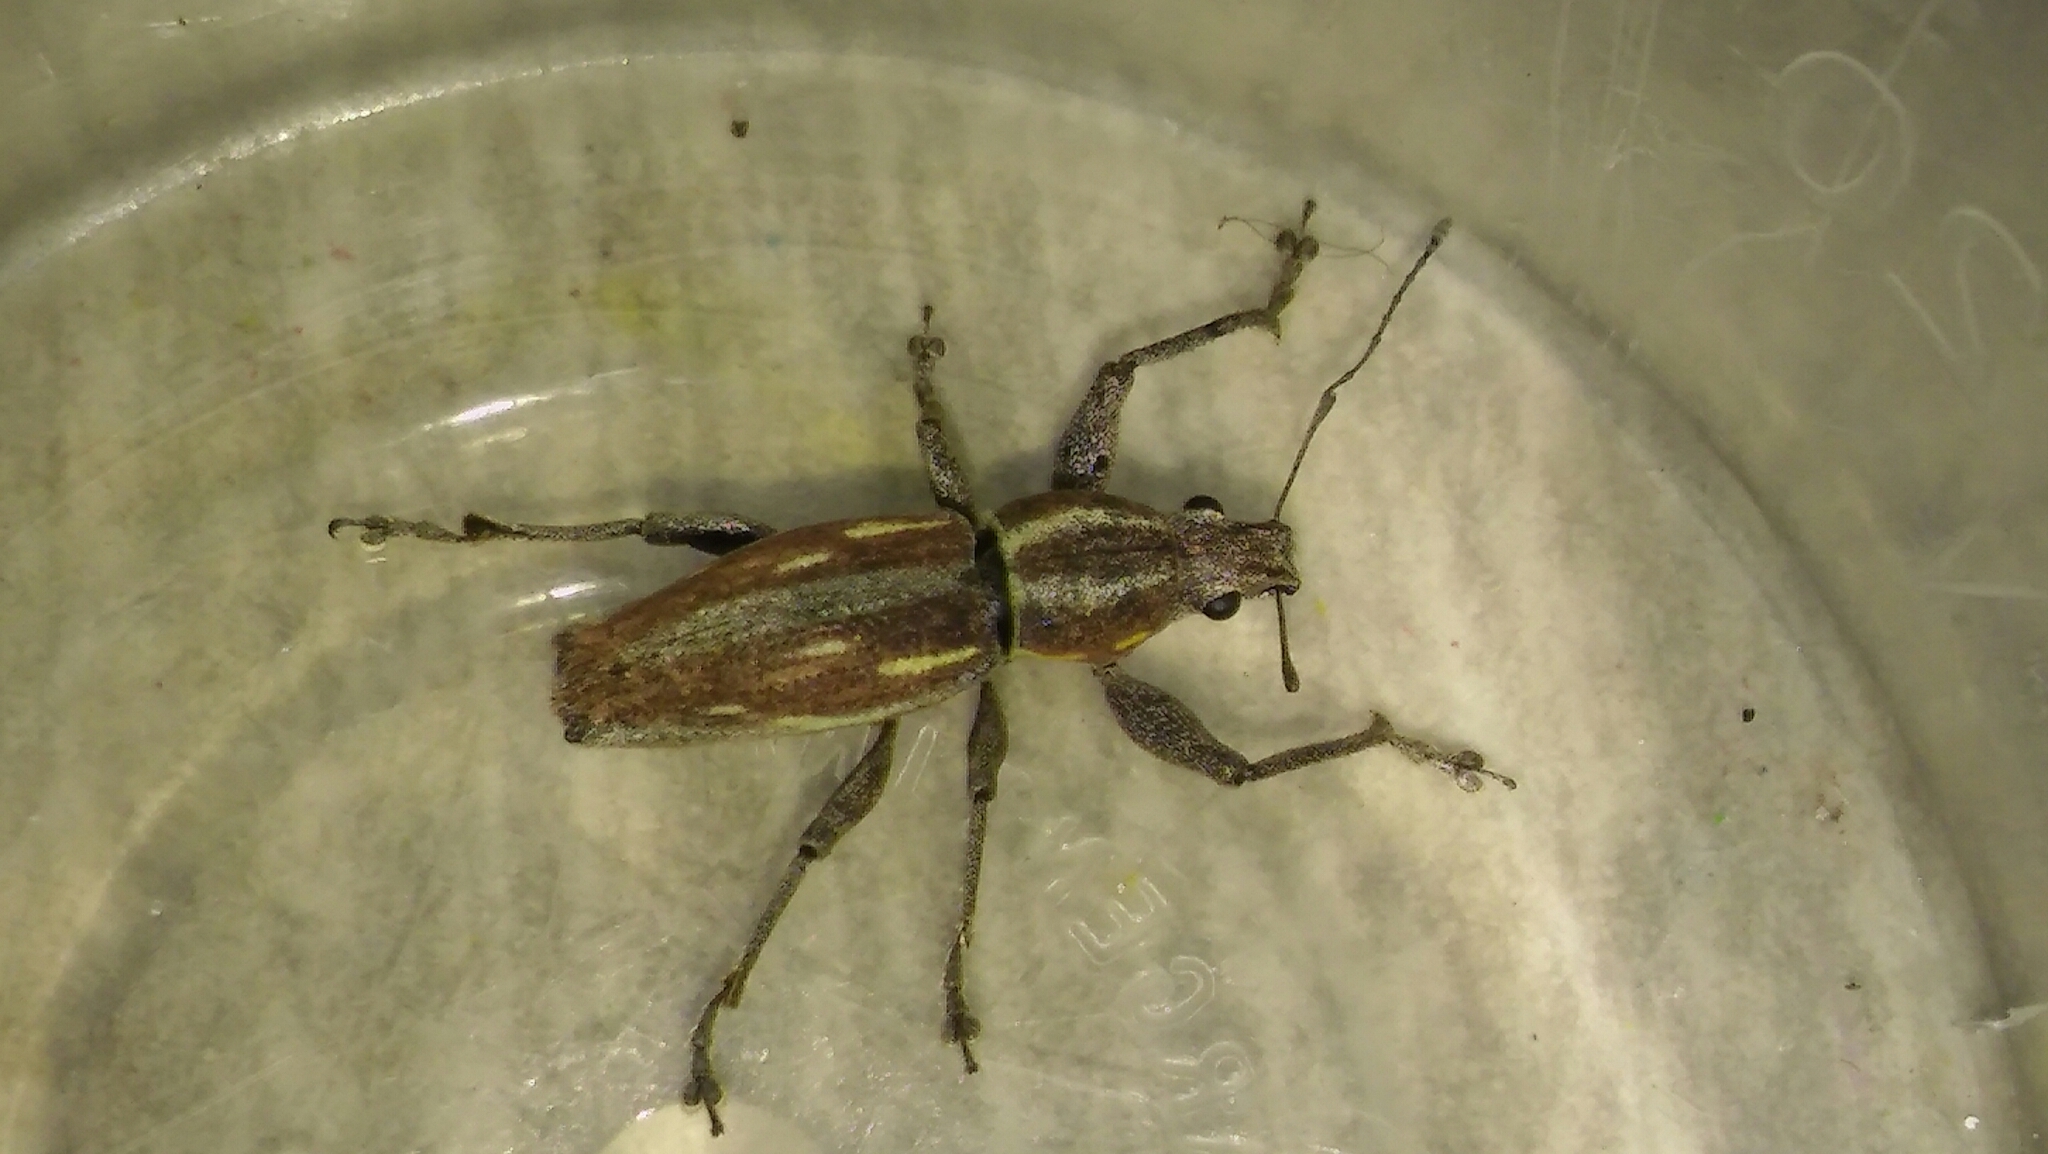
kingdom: Animalia
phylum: Arthropoda
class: Insecta
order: Coleoptera
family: Curculionidae
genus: Naupactus
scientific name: Naupactus xanthographus
